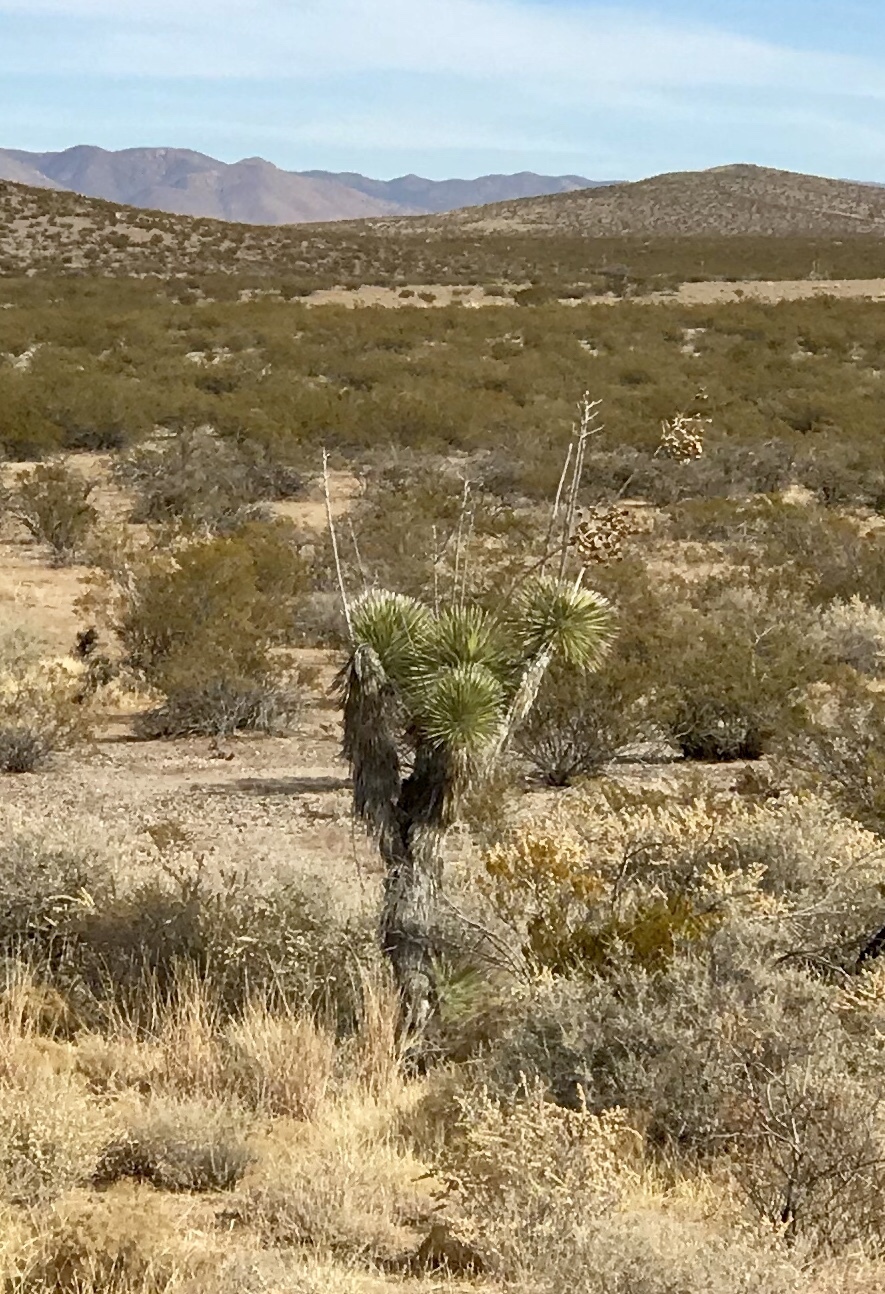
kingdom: Plantae
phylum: Tracheophyta
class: Liliopsida
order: Asparagales
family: Asparagaceae
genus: Yucca
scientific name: Yucca elata
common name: Palmella
